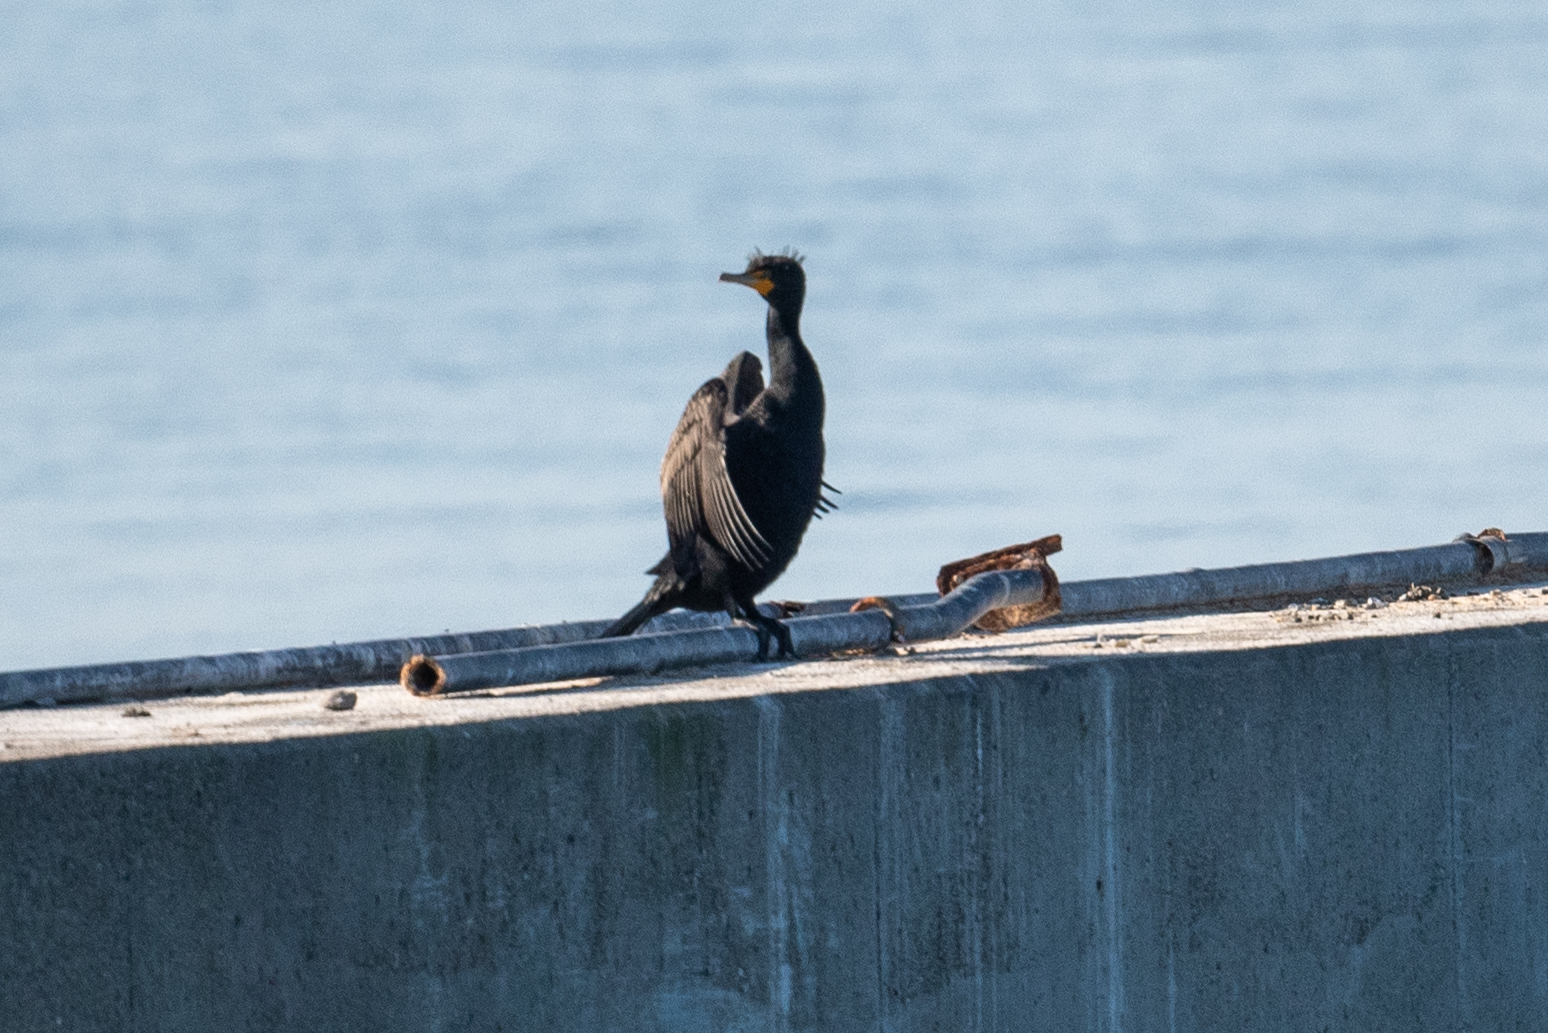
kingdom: Animalia
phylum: Chordata
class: Aves
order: Suliformes
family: Phalacrocoracidae
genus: Phalacrocorax
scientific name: Phalacrocorax auritus
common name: Double-crested cormorant
